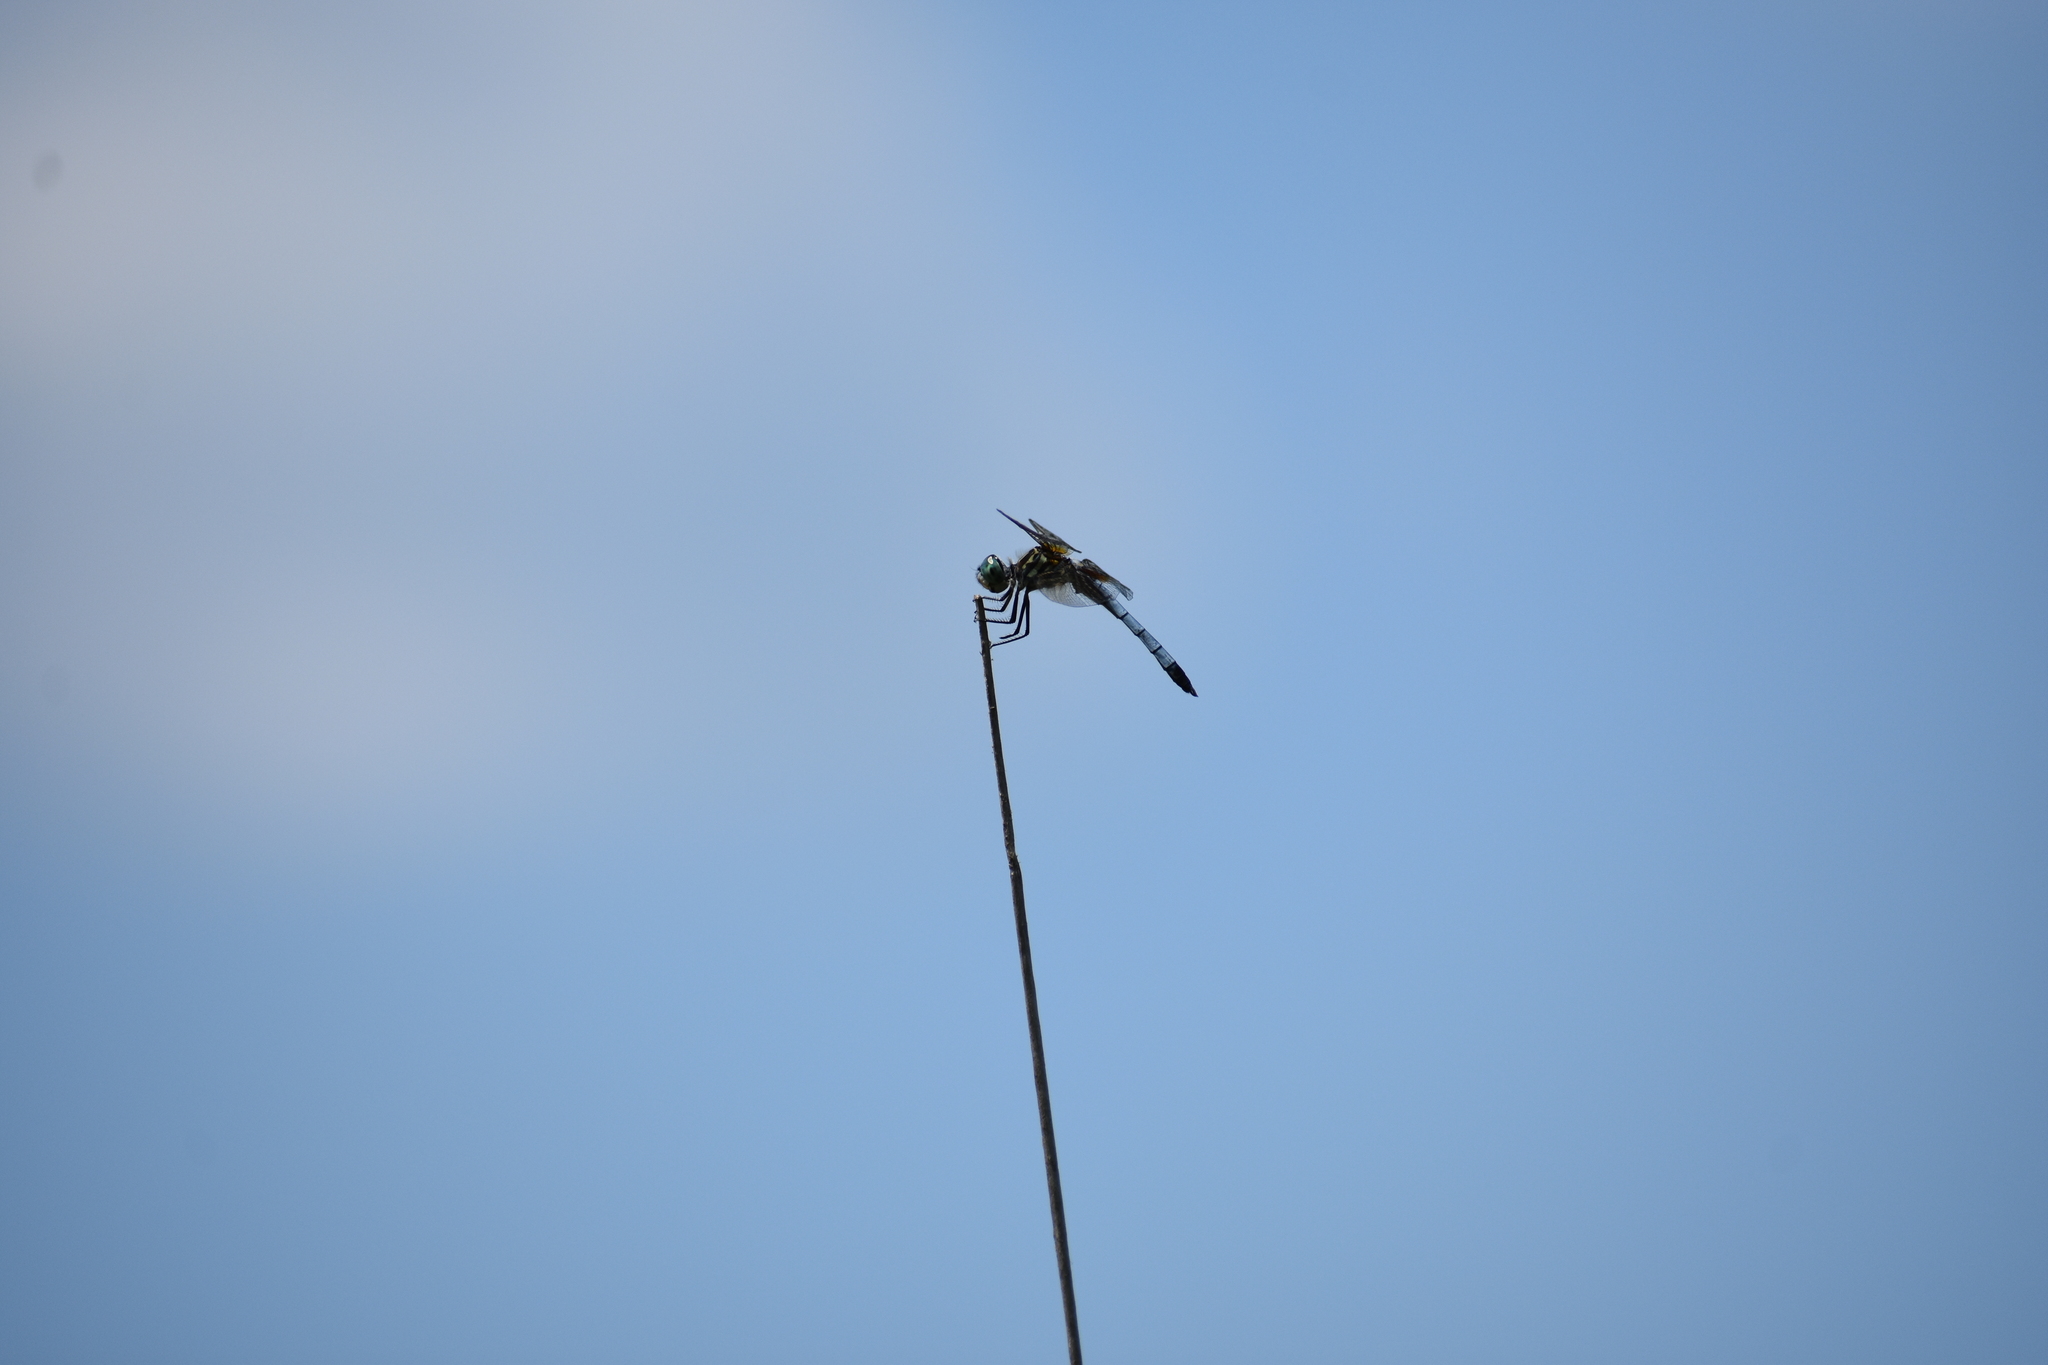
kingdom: Animalia
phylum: Arthropoda
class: Insecta
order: Odonata
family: Libellulidae
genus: Pachydiplax
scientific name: Pachydiplax longipennis
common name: Blue dasher
